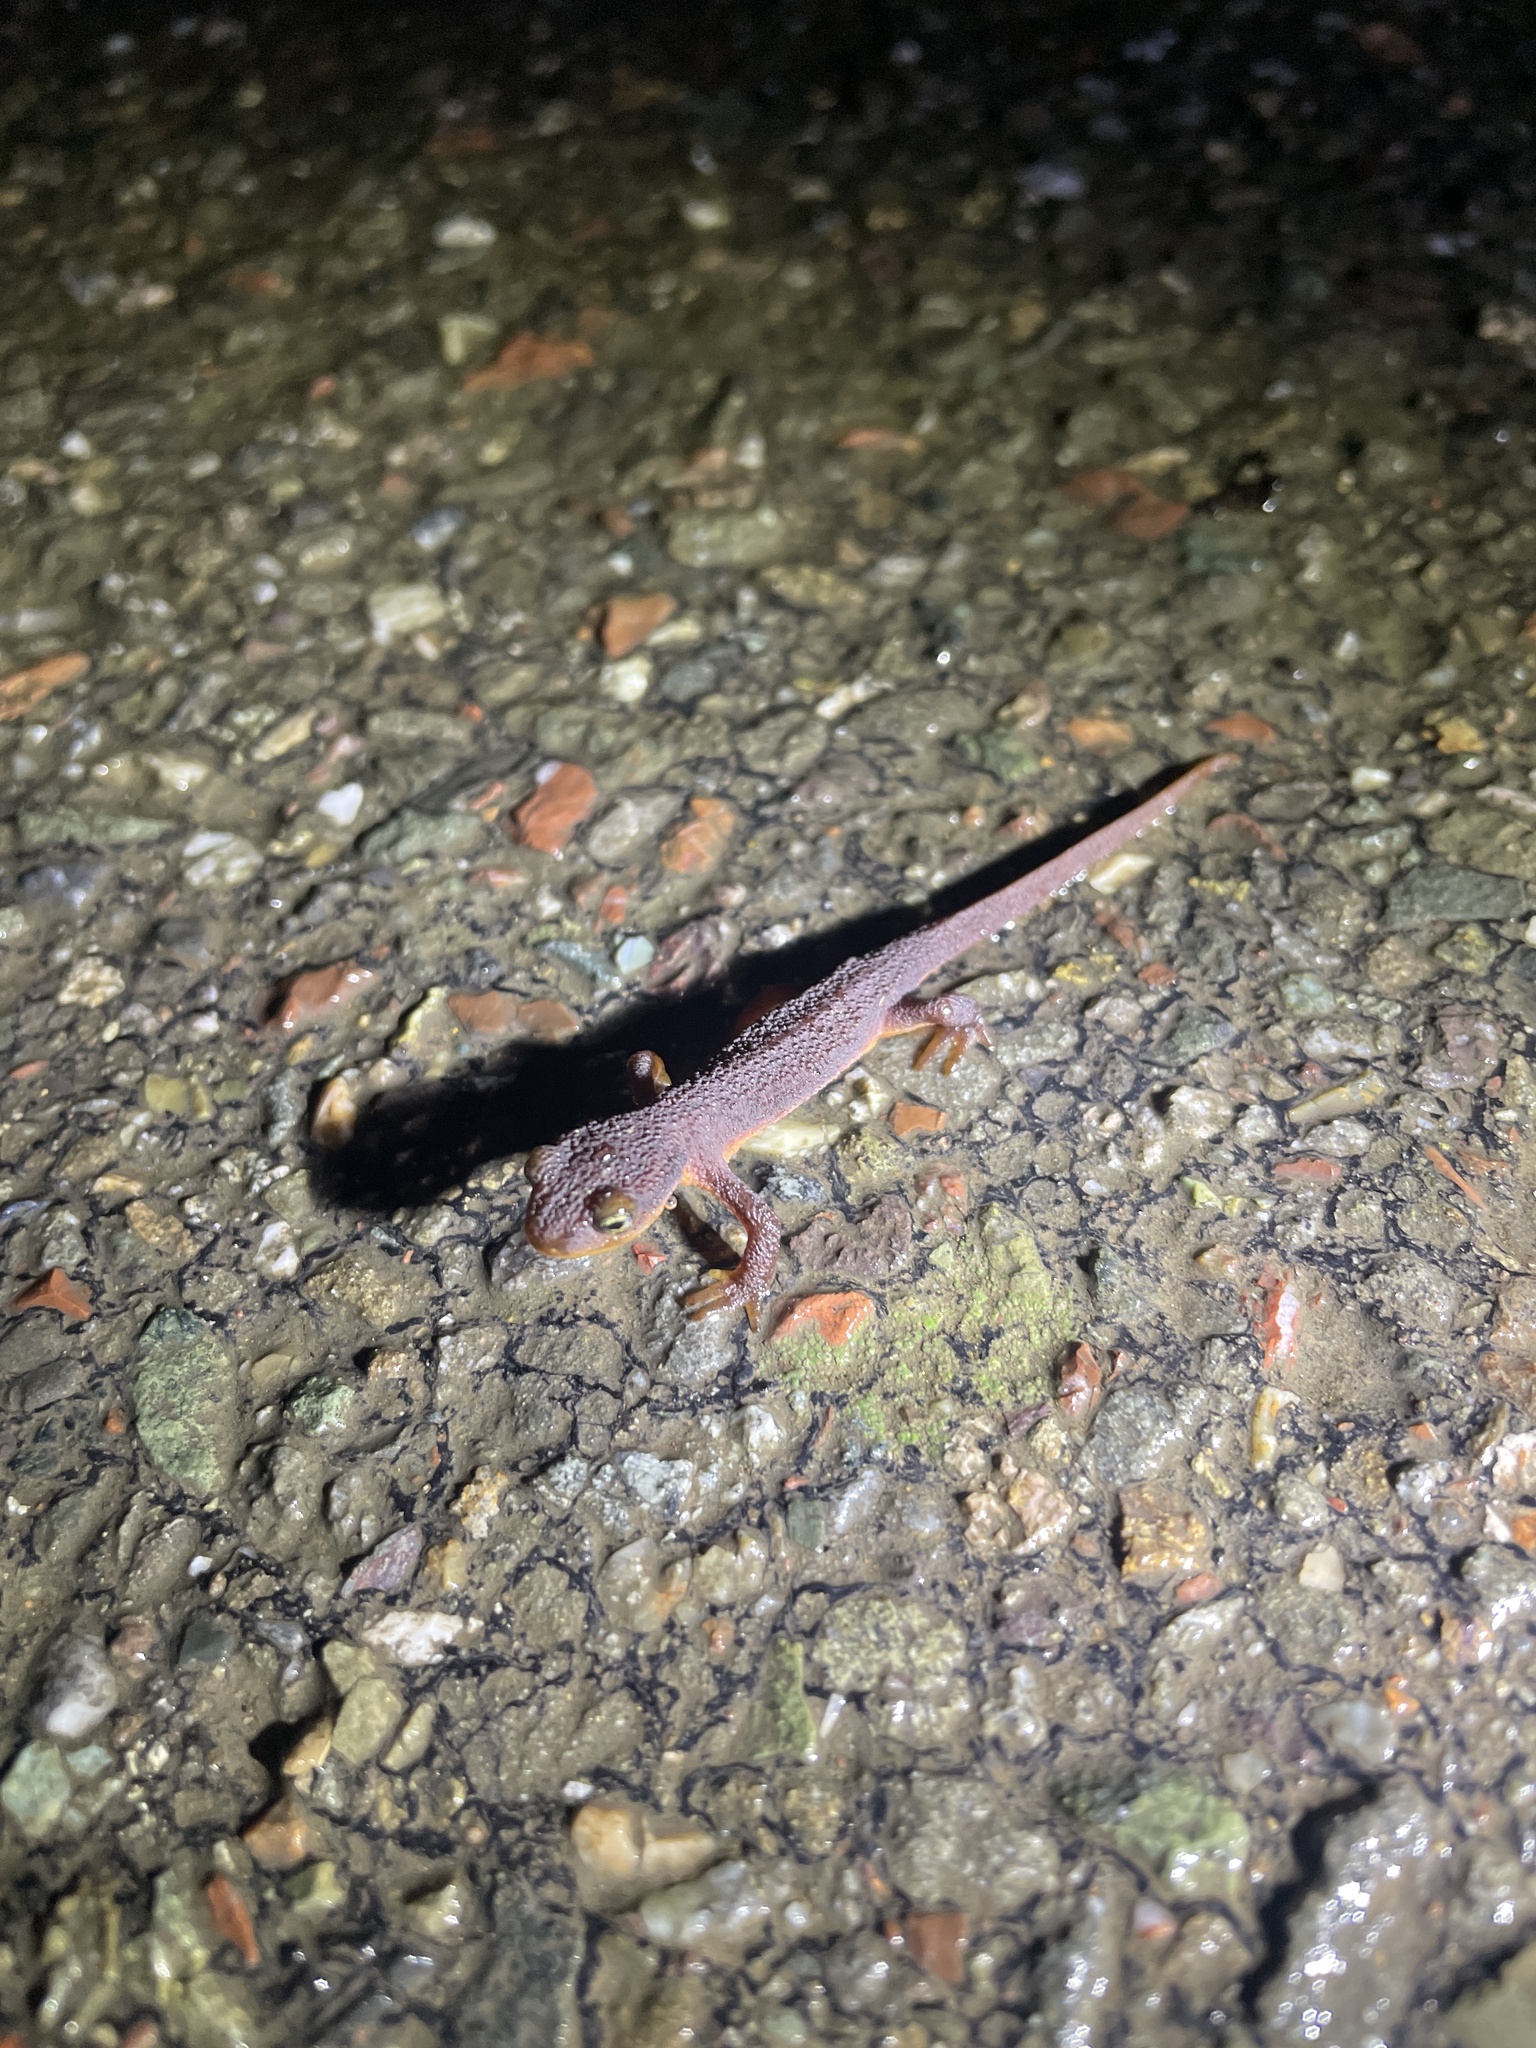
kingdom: Animalia
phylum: Chordata
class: Amphibia
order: Caudata
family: Salamandridae
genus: Taricha
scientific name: Taricha torosa
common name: California newt
